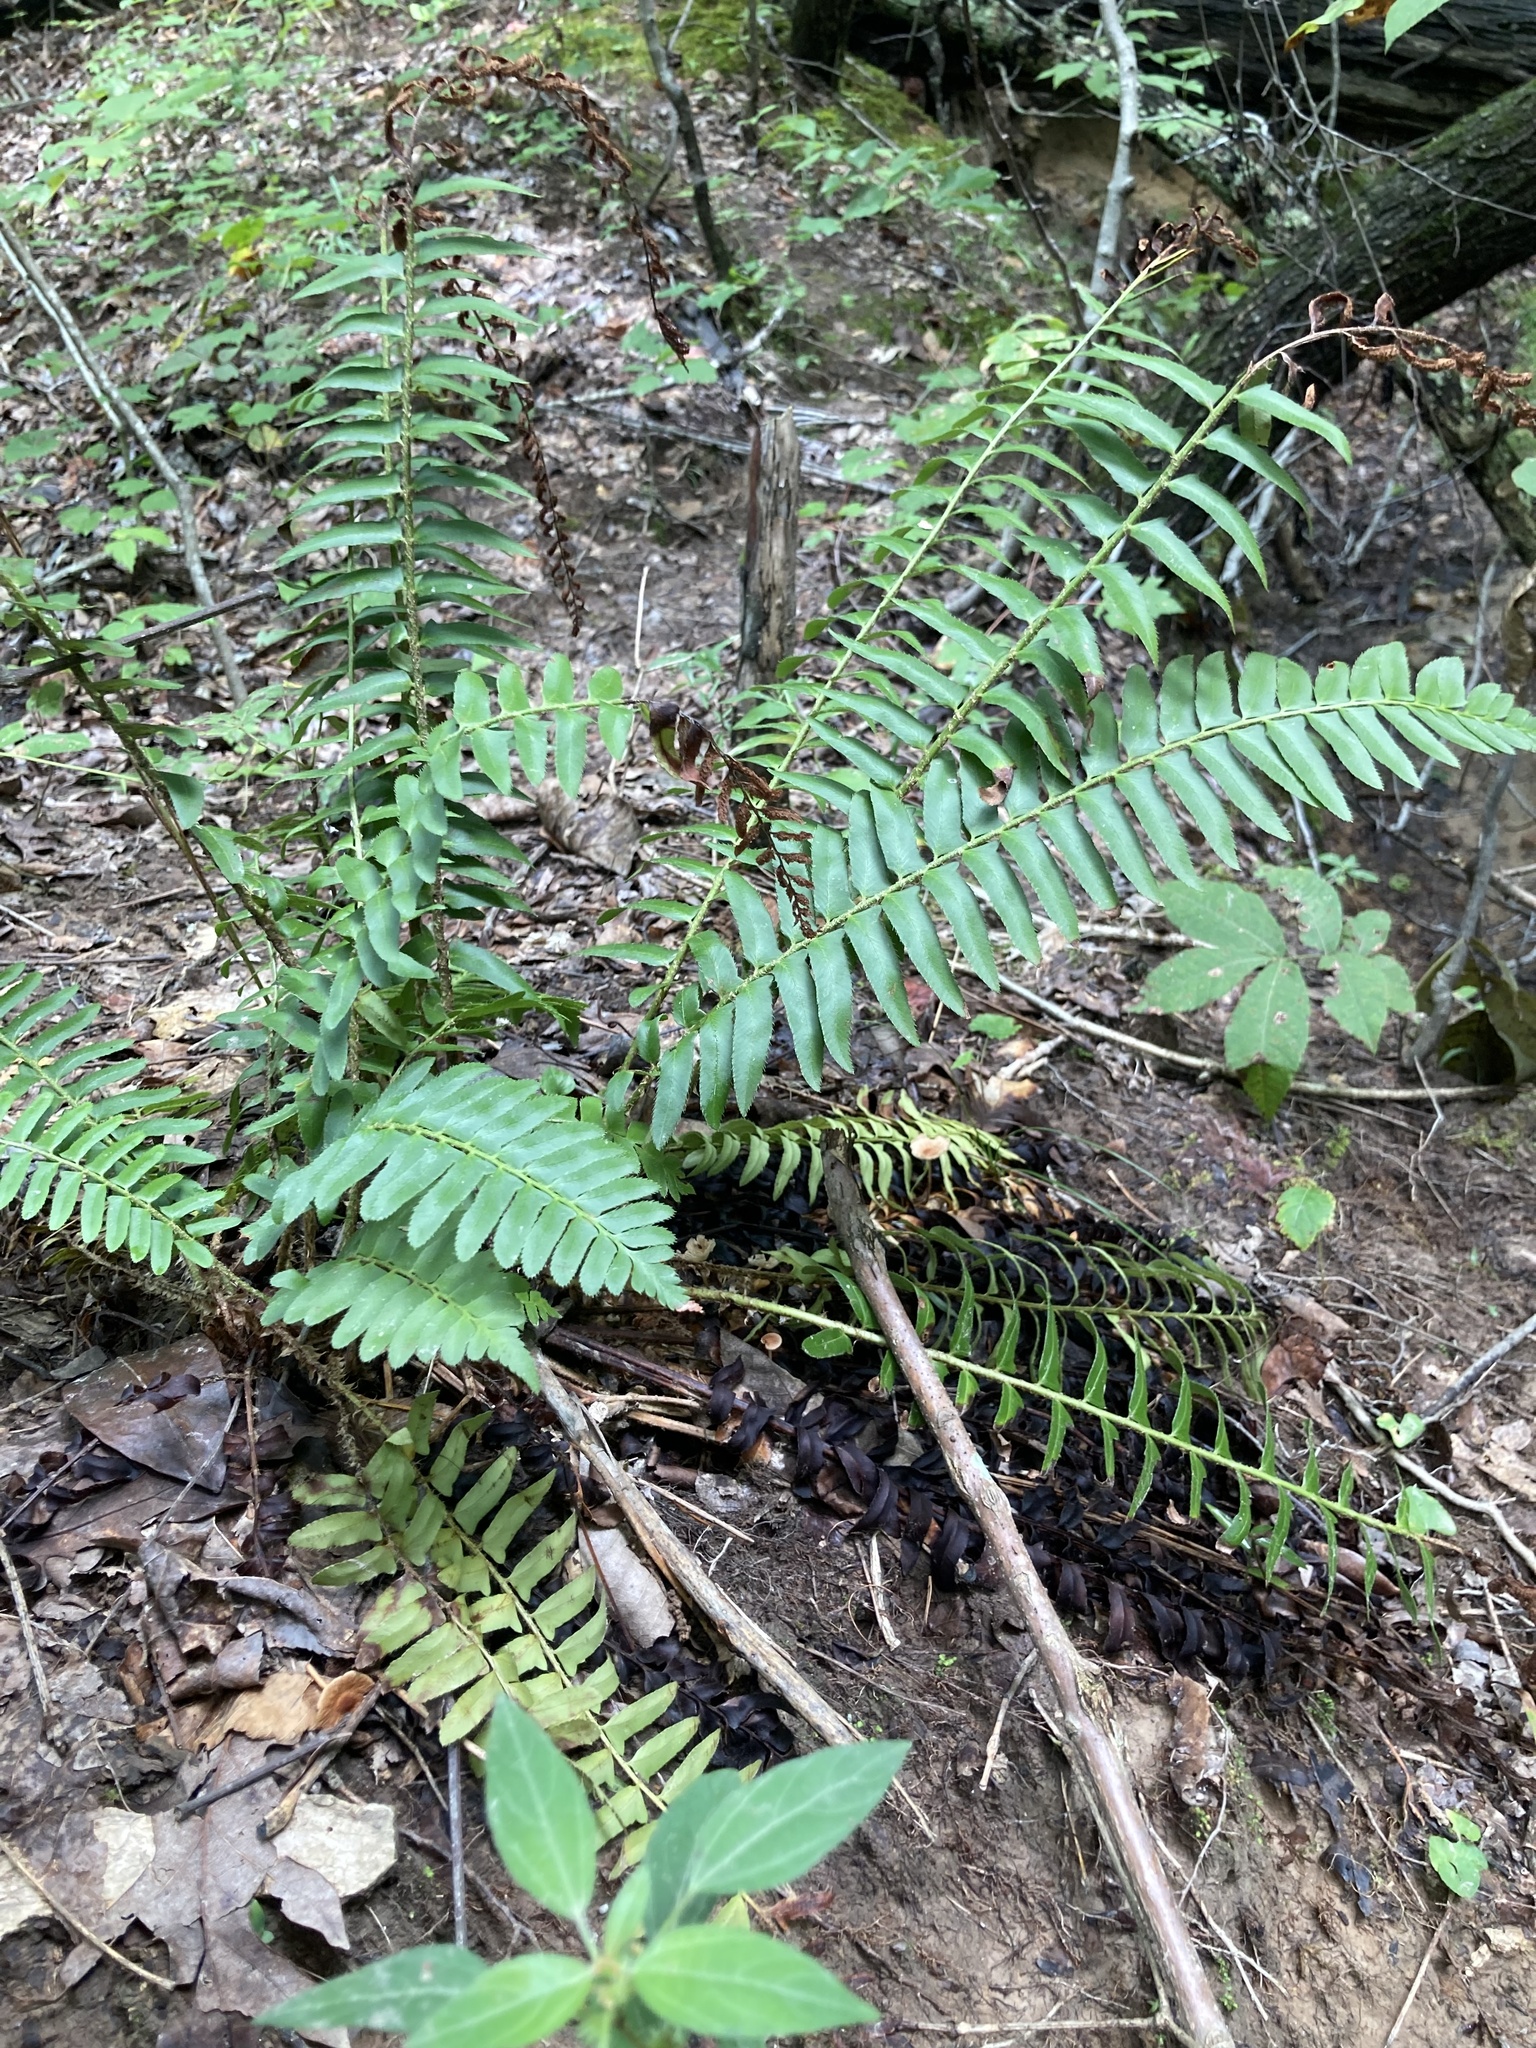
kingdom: Plantae
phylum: Tracheophyta
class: Polypodiopsida
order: Polypodiales
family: Dryopteridaceae
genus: Polystichum
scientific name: Polystichum acrostichoides
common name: Christmas fern
